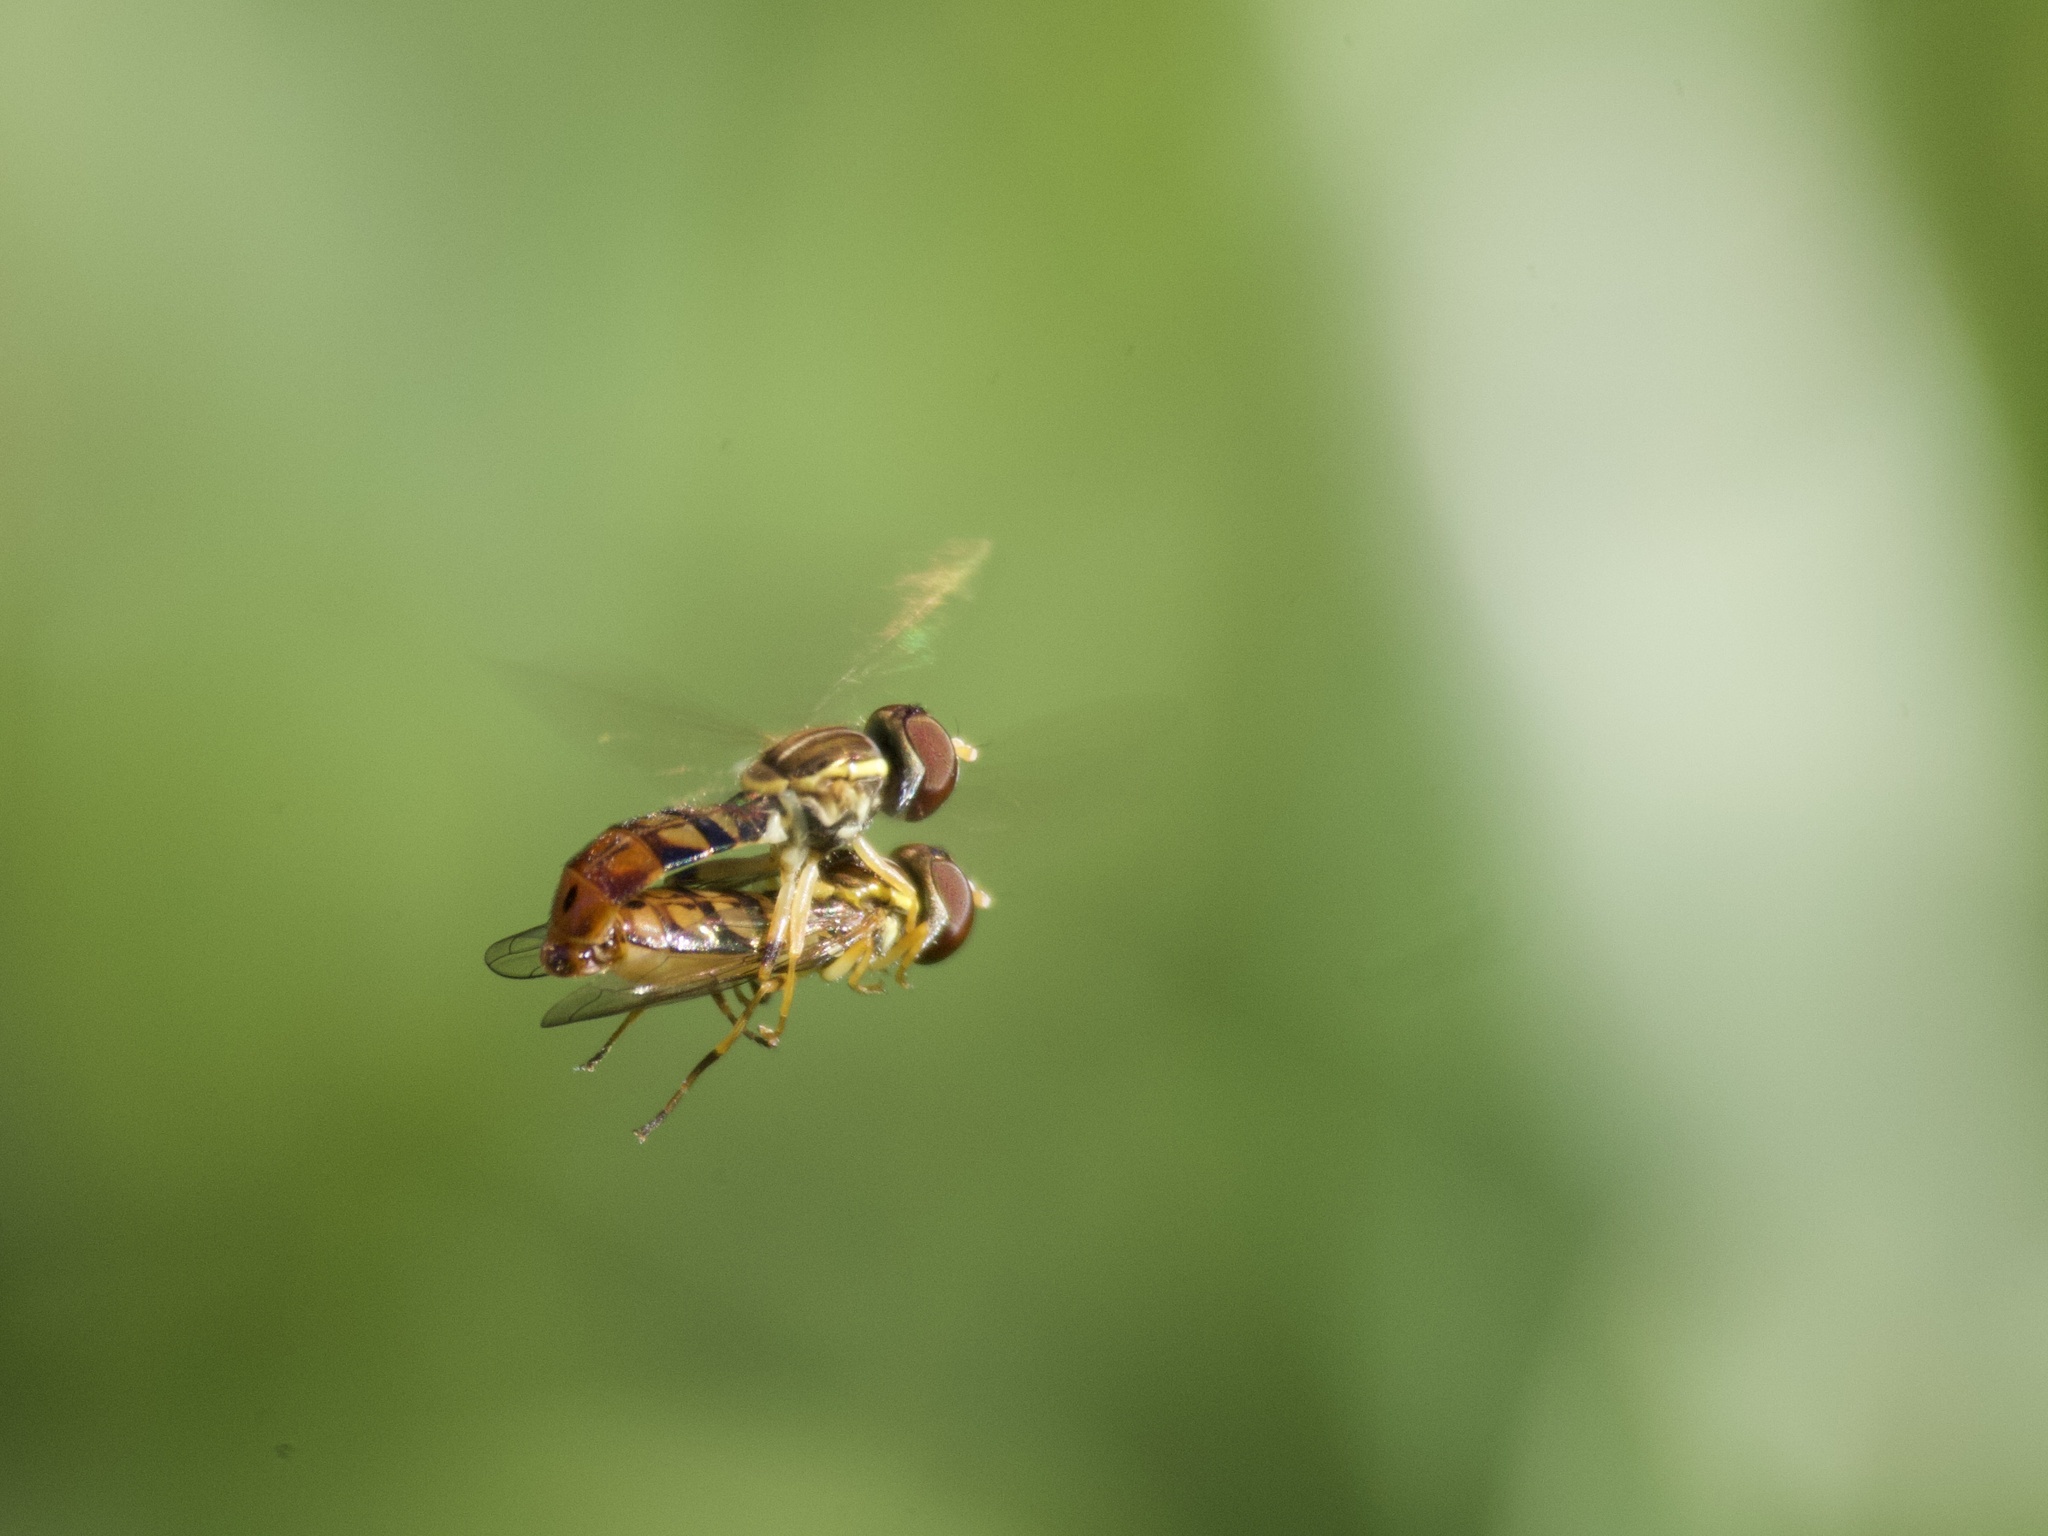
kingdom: Animalia
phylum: Arthropoda
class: Insecta
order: Diptera
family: Syrphidae
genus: Toxomerus
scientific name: Toxomerus floralis
